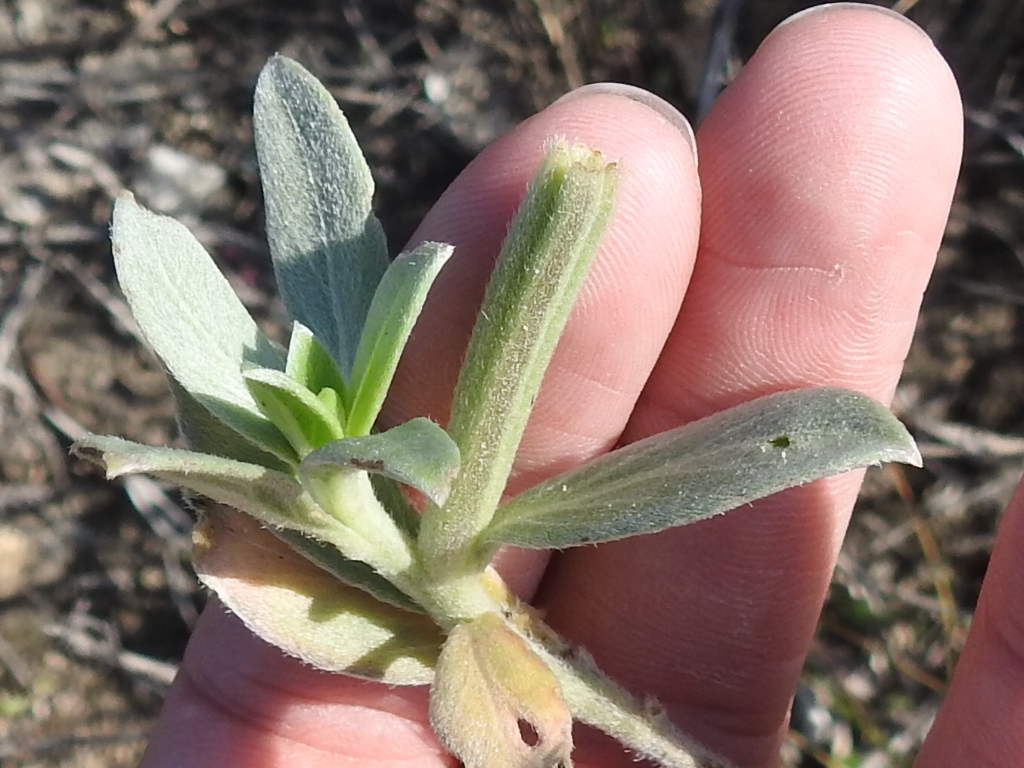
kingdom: Plantae
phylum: Tracheophyta
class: Magnoliopsida
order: Myrtales
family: Onagraceae
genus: Oenothera
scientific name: Oenothera drummondii
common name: Beach evening-primrose
